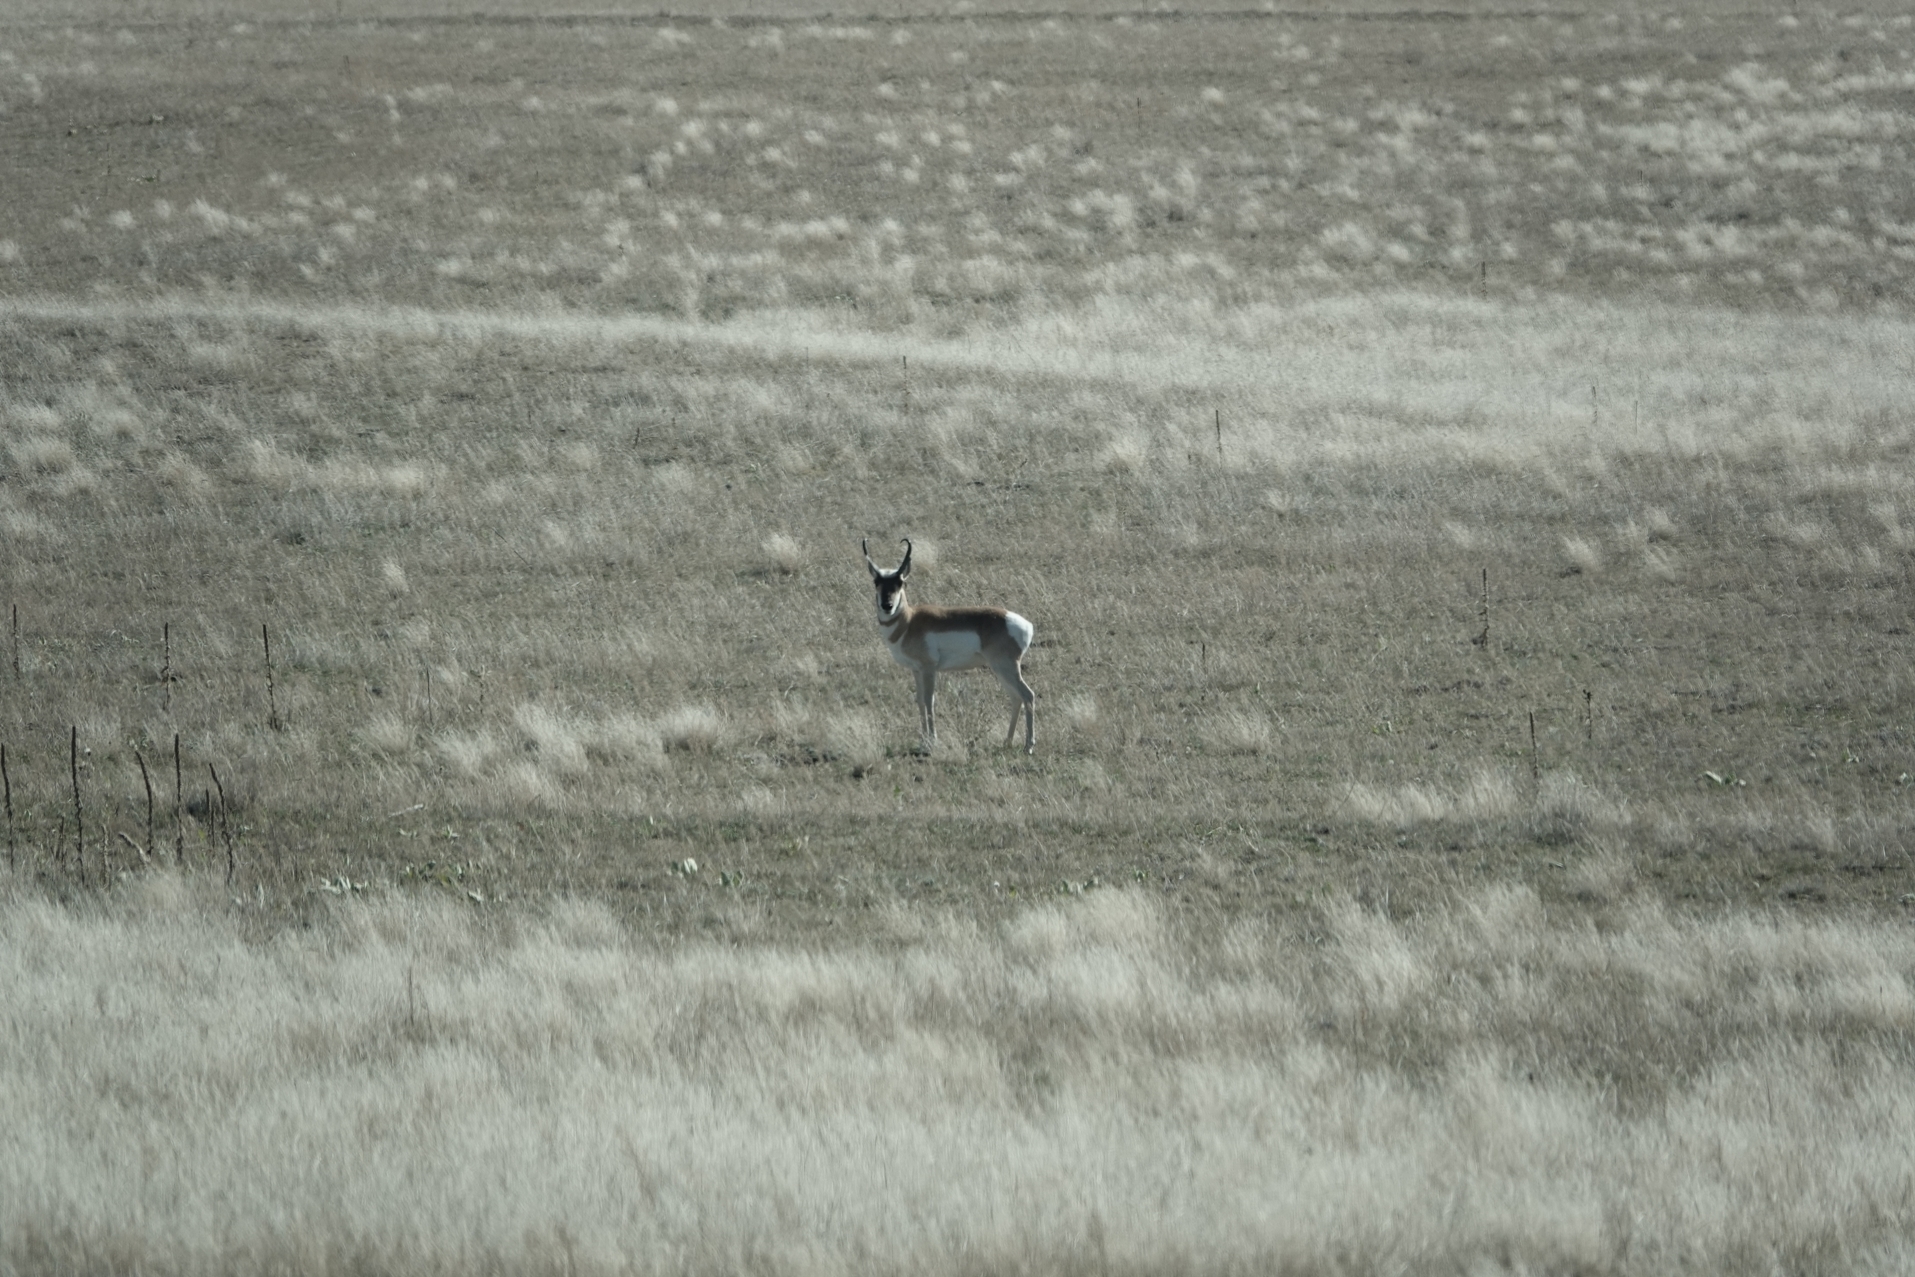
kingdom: Animalia
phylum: Chordata
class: Mammalia
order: Artiodactyla
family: Antilocapridae
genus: Antilocapra
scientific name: Antilocapra americana
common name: Pronghorn
